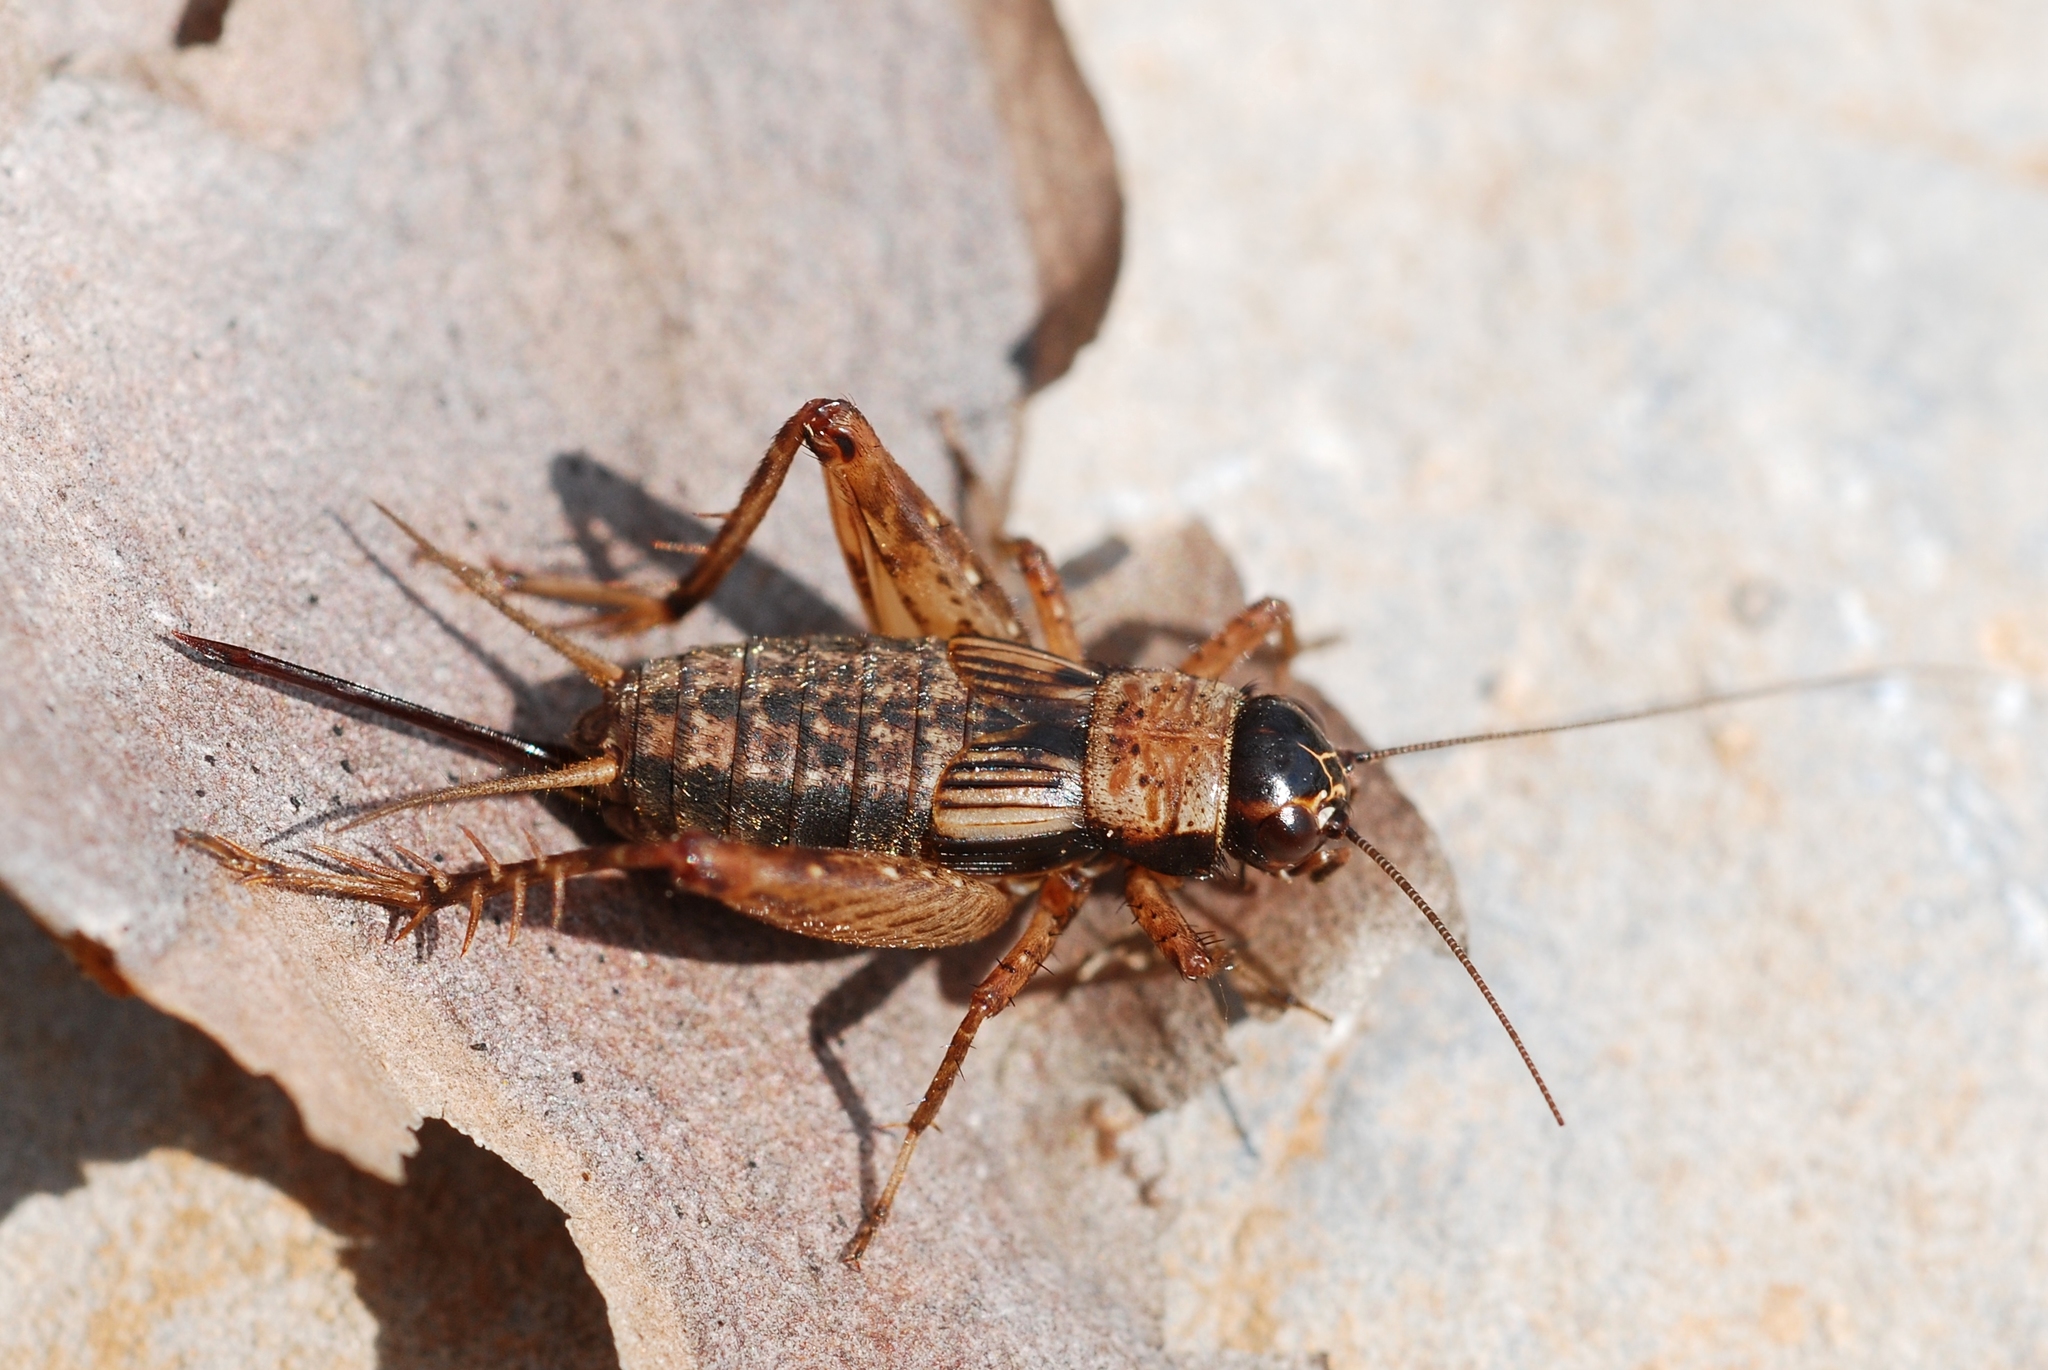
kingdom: Animalia
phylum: Arthropoda
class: Insecta
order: Orthoptera
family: Trigonidiidae
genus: Nemobius
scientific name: Nemobius sylvestris
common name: Wood-cricket
